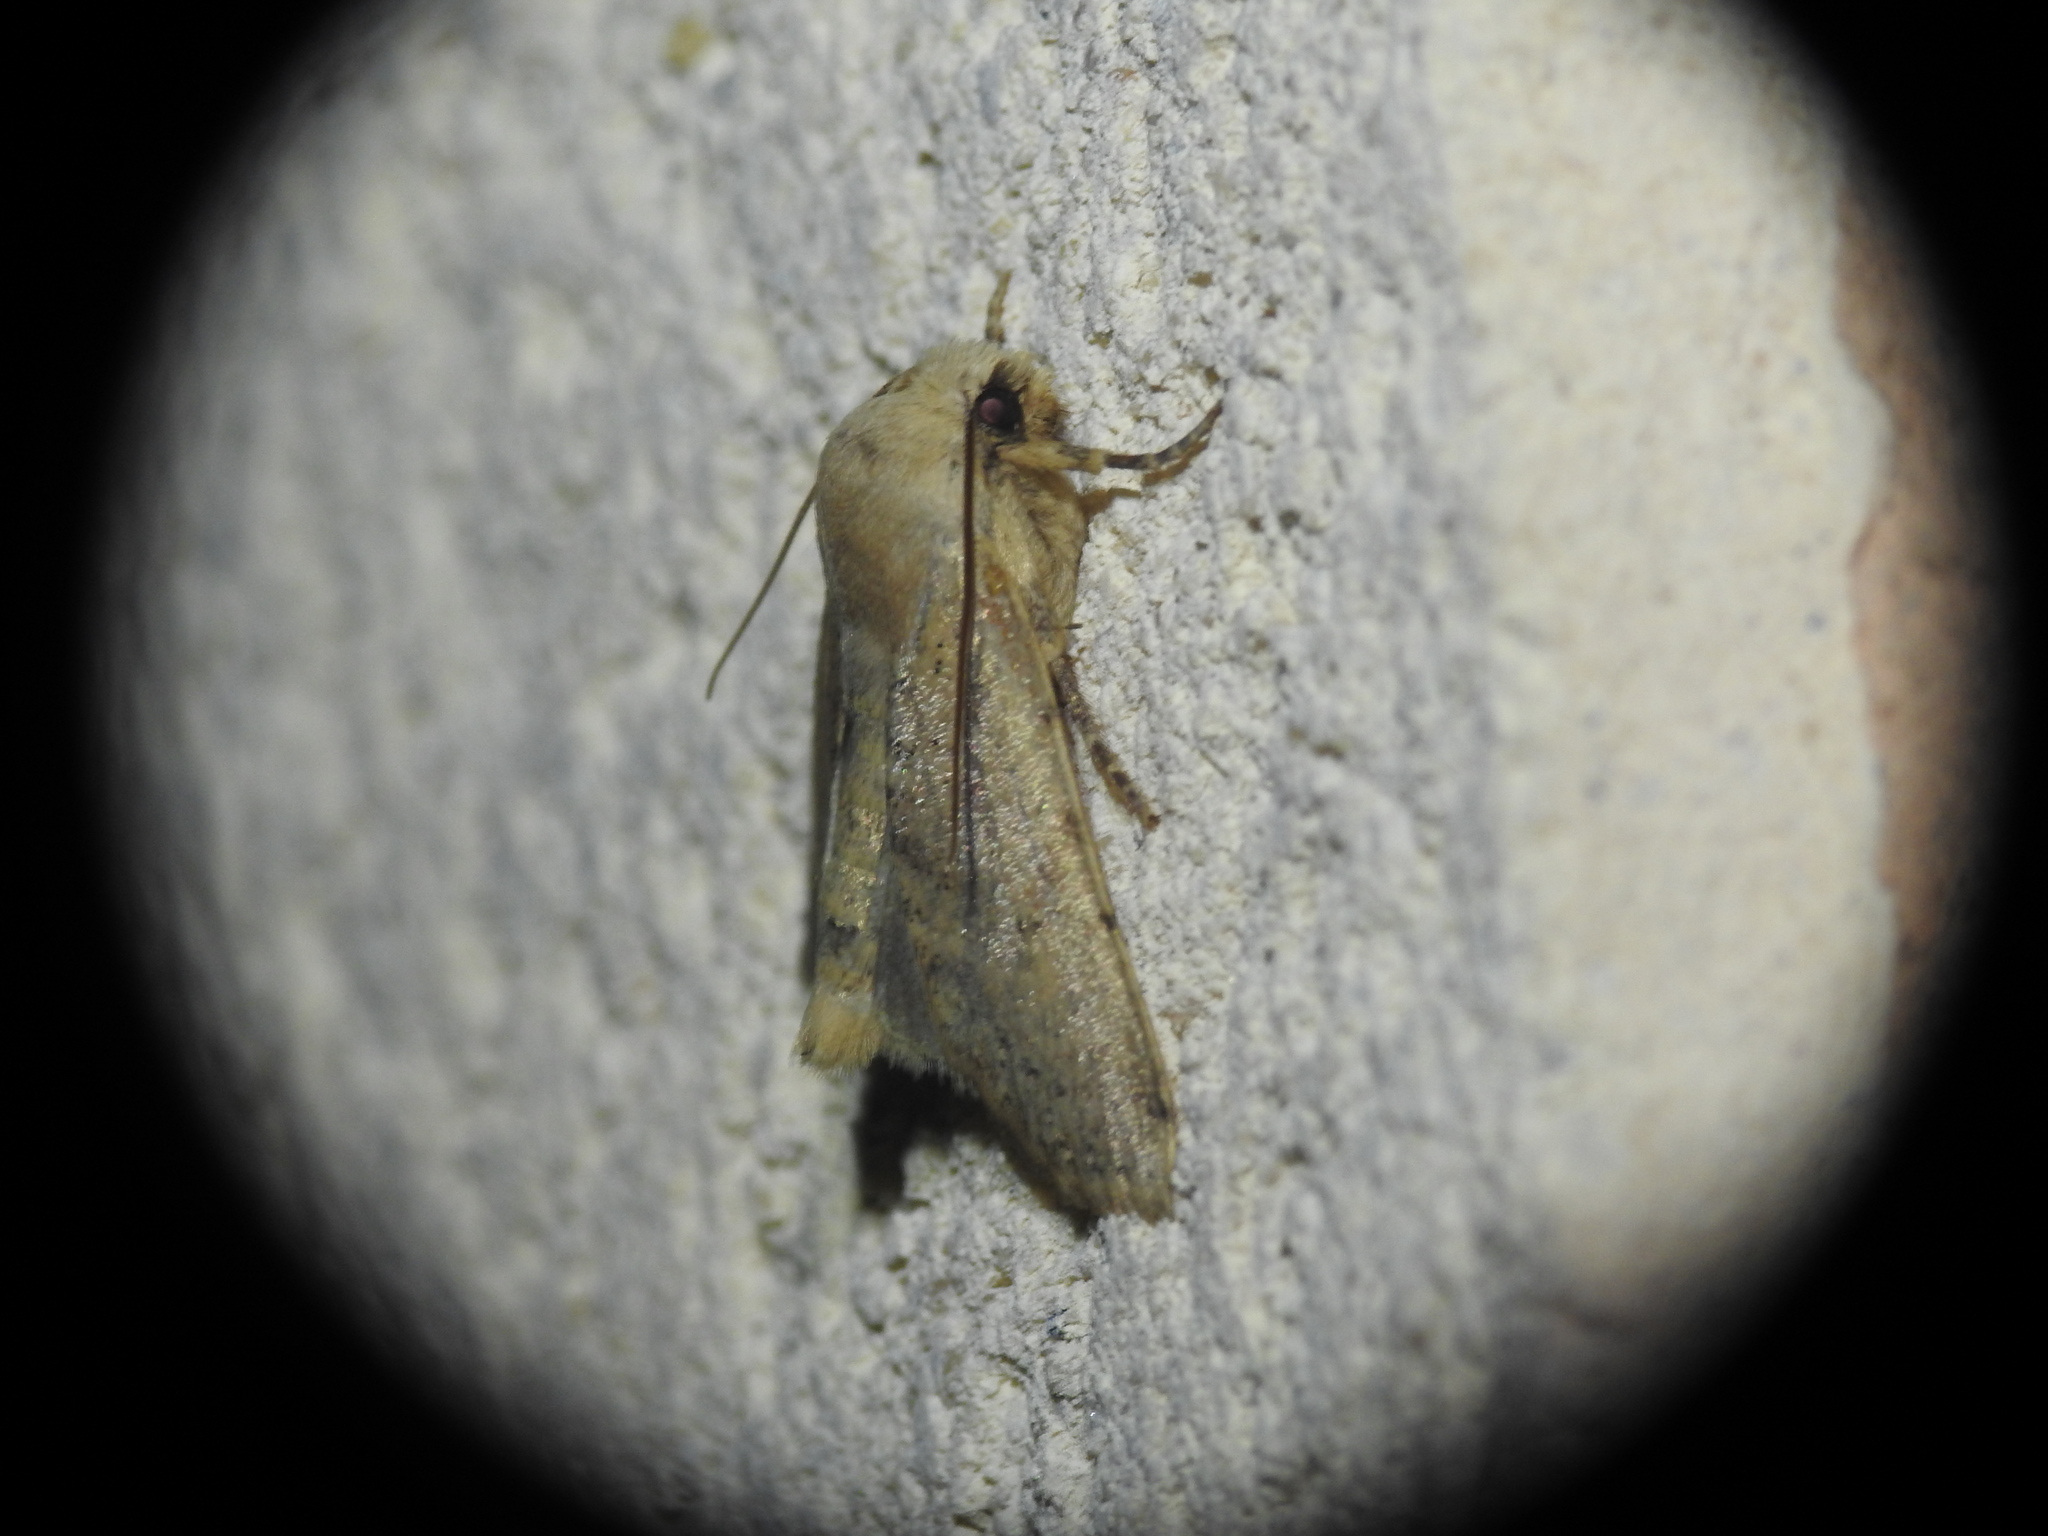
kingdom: Animalia
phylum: Arthropoda
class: Insecta
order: Lepidoptera
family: Noctuidae
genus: Conistra
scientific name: Conistra daubei
